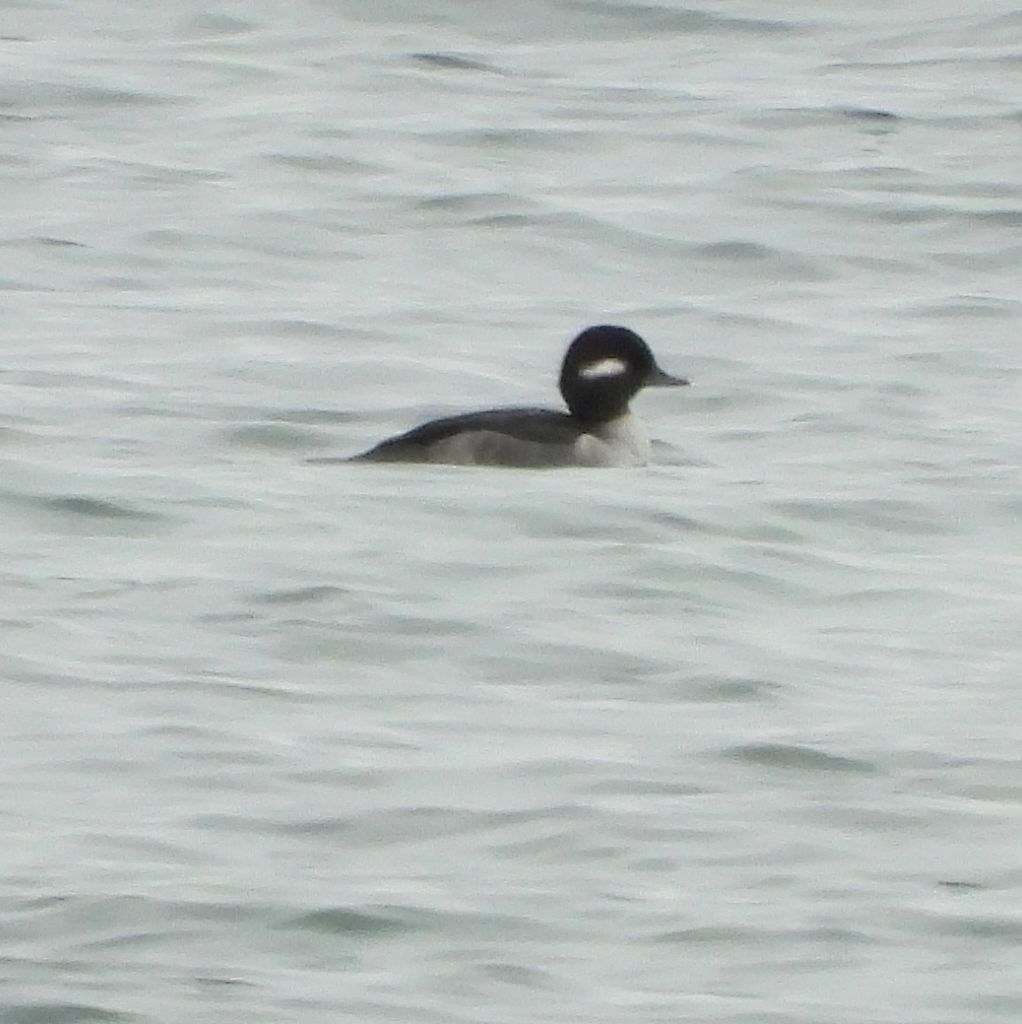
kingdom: Animalia
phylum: Chordata
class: Aves
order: Anseriformes
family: Anatidae
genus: Bucephala
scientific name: Bucephala albeola
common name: Bufflehead
